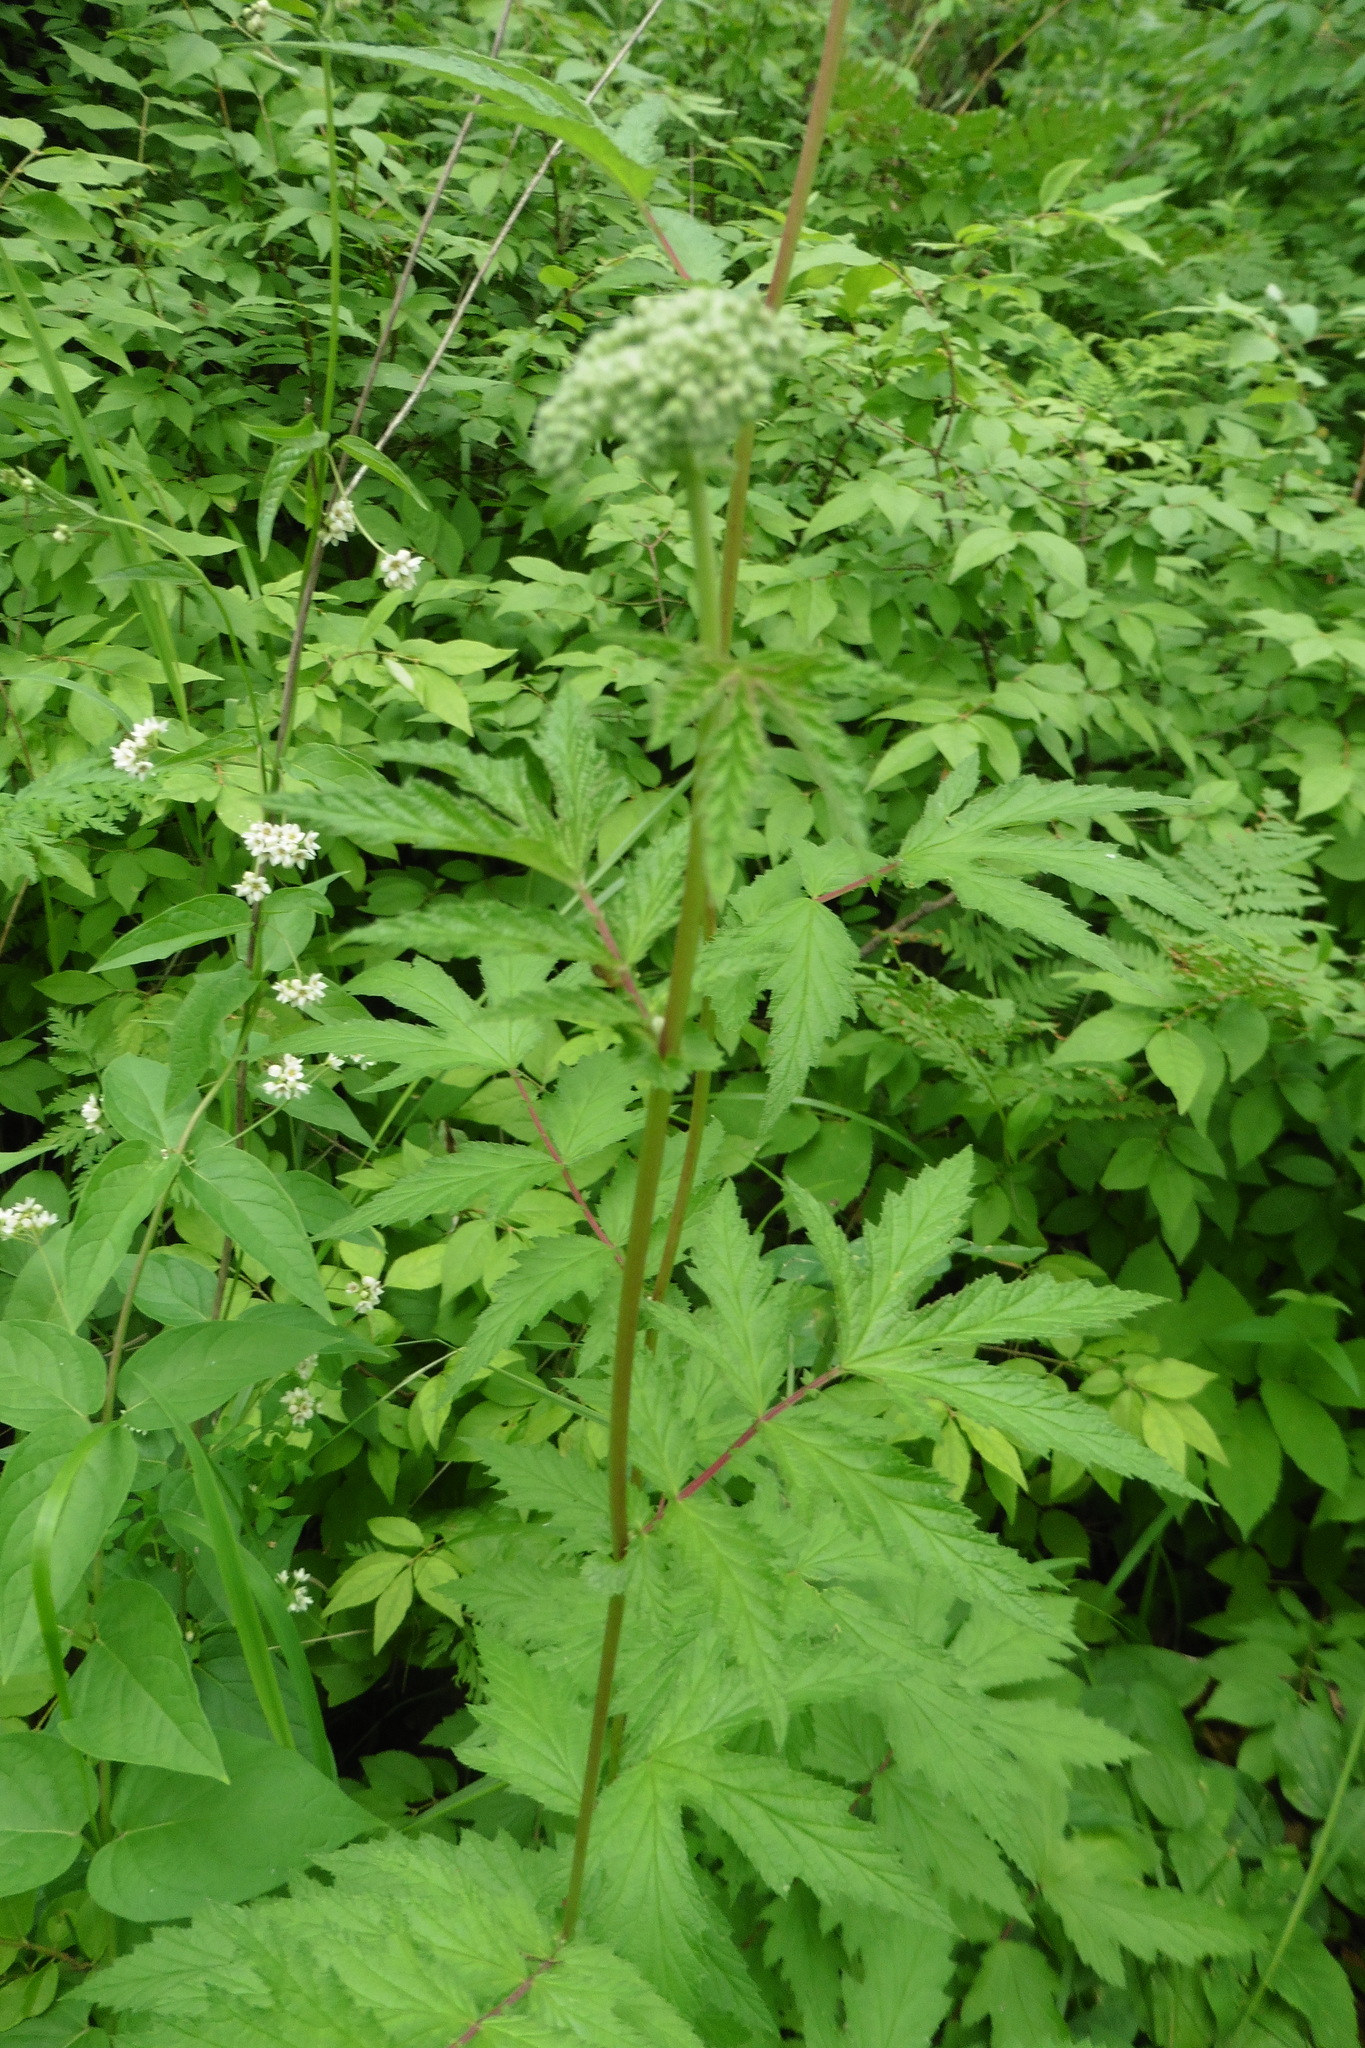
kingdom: Plantae
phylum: Tracheophyta
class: Magnoliopsida
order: Rosales
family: Rosaceae
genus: Filipendula
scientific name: Filipendula ulmaria
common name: Meadowsweet
